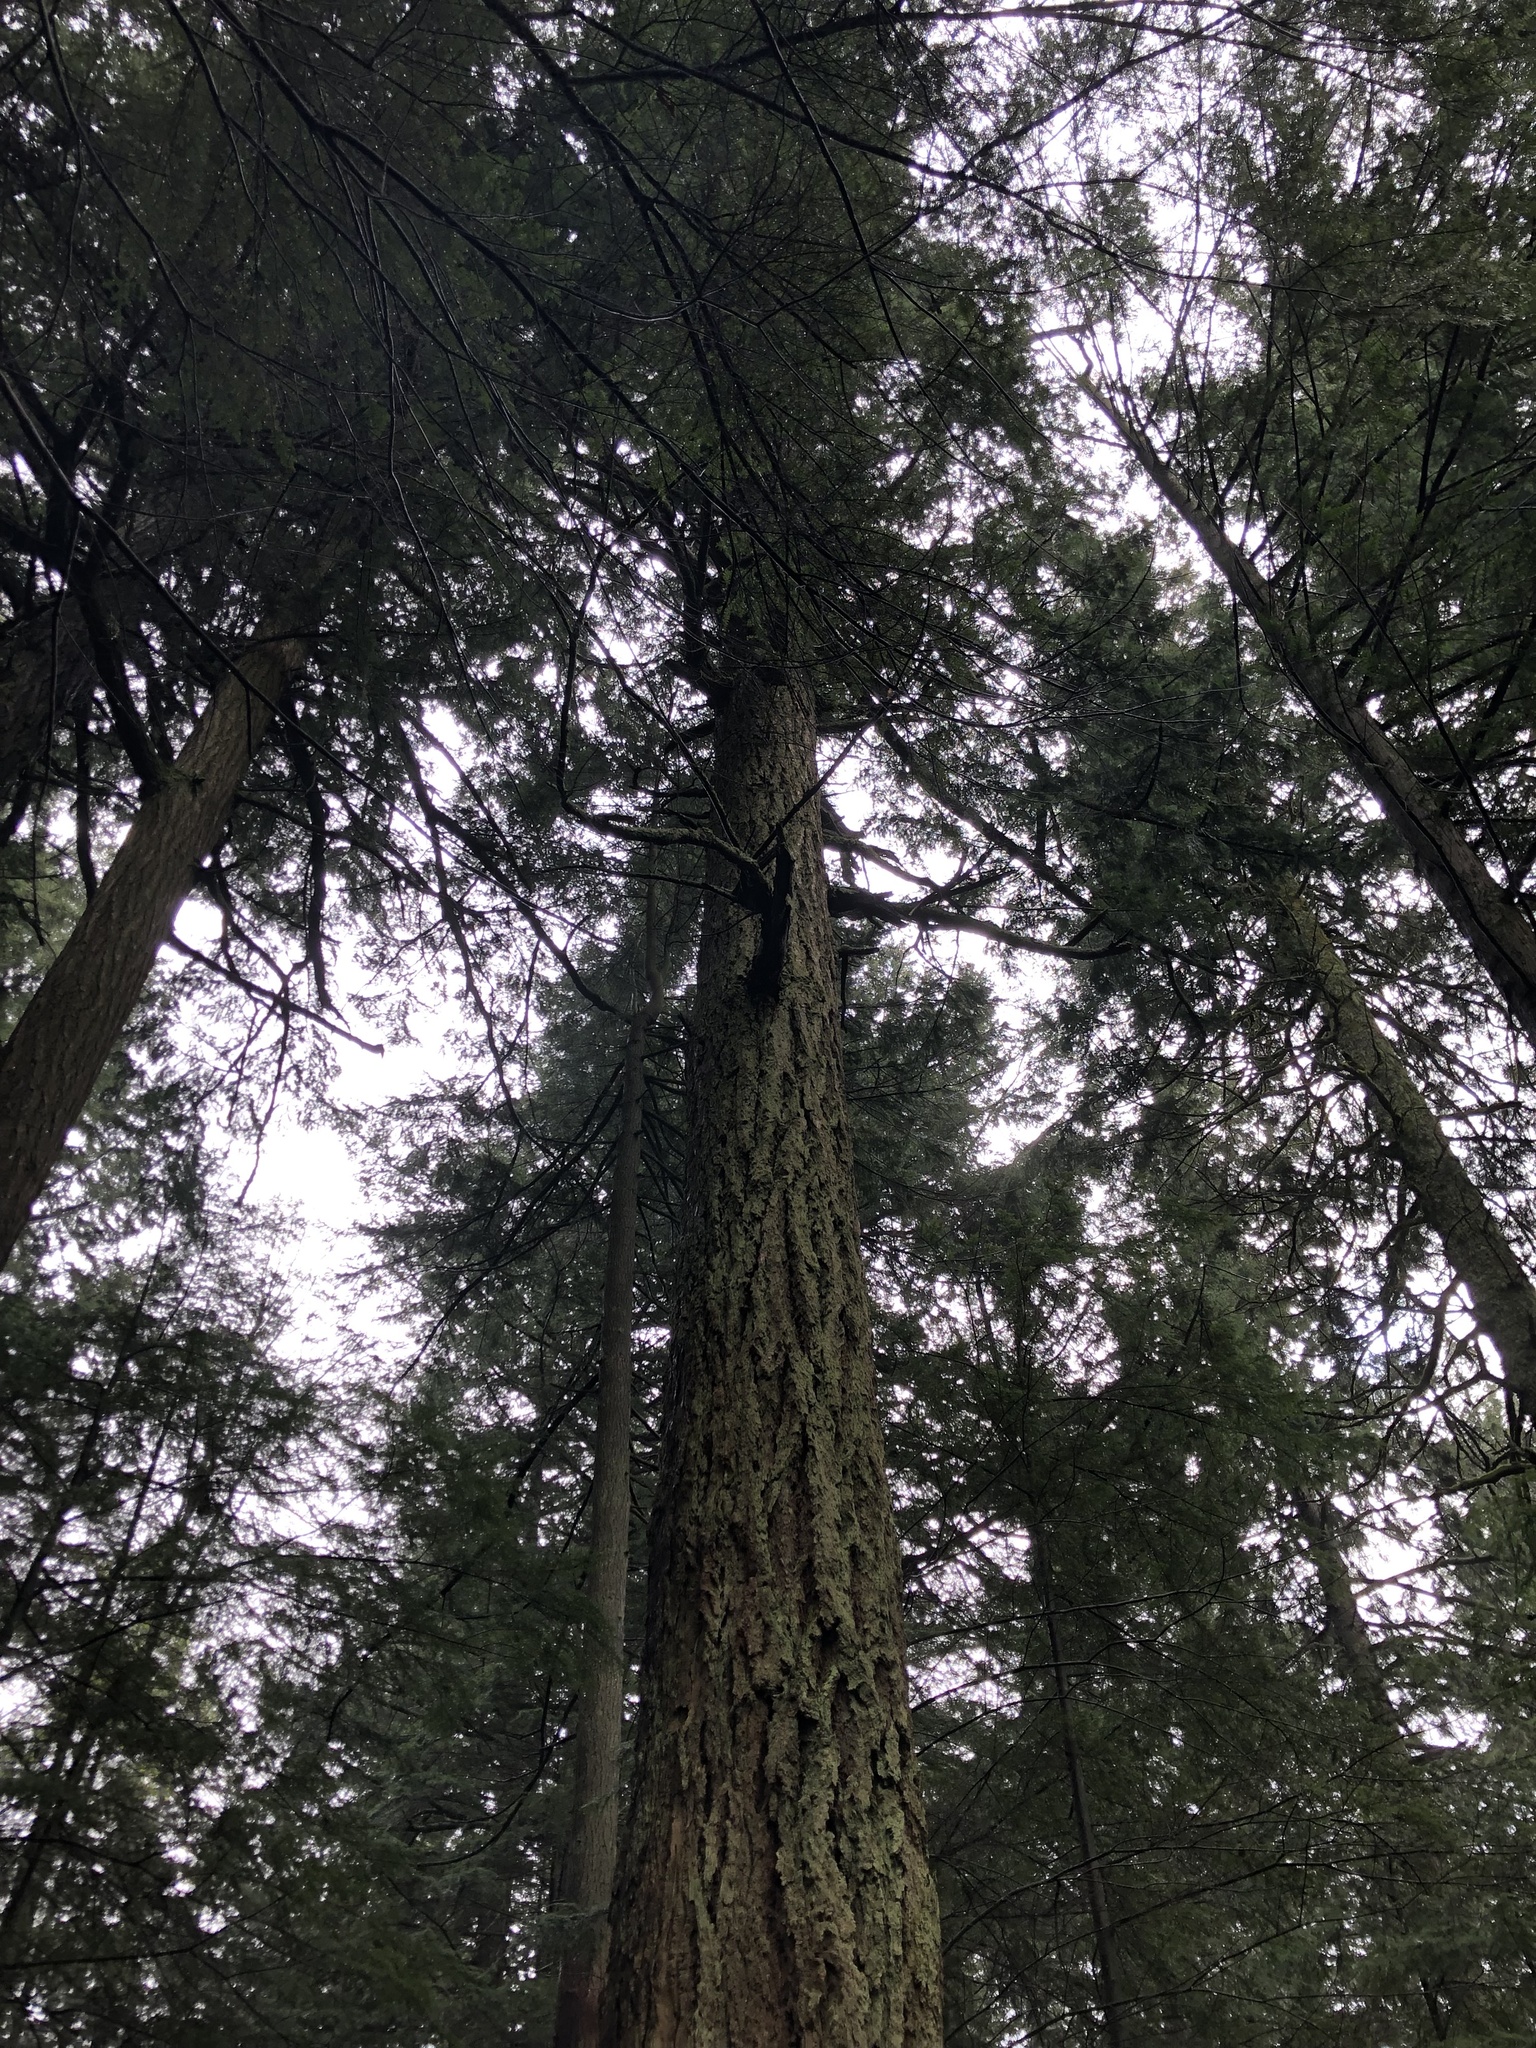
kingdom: Plantae
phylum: Tracheophyta
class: Pinopsida
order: Pinales
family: Pinaceae
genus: Pseudotsuga
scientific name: Pseudotsuga menziesii
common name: Douglas fir
